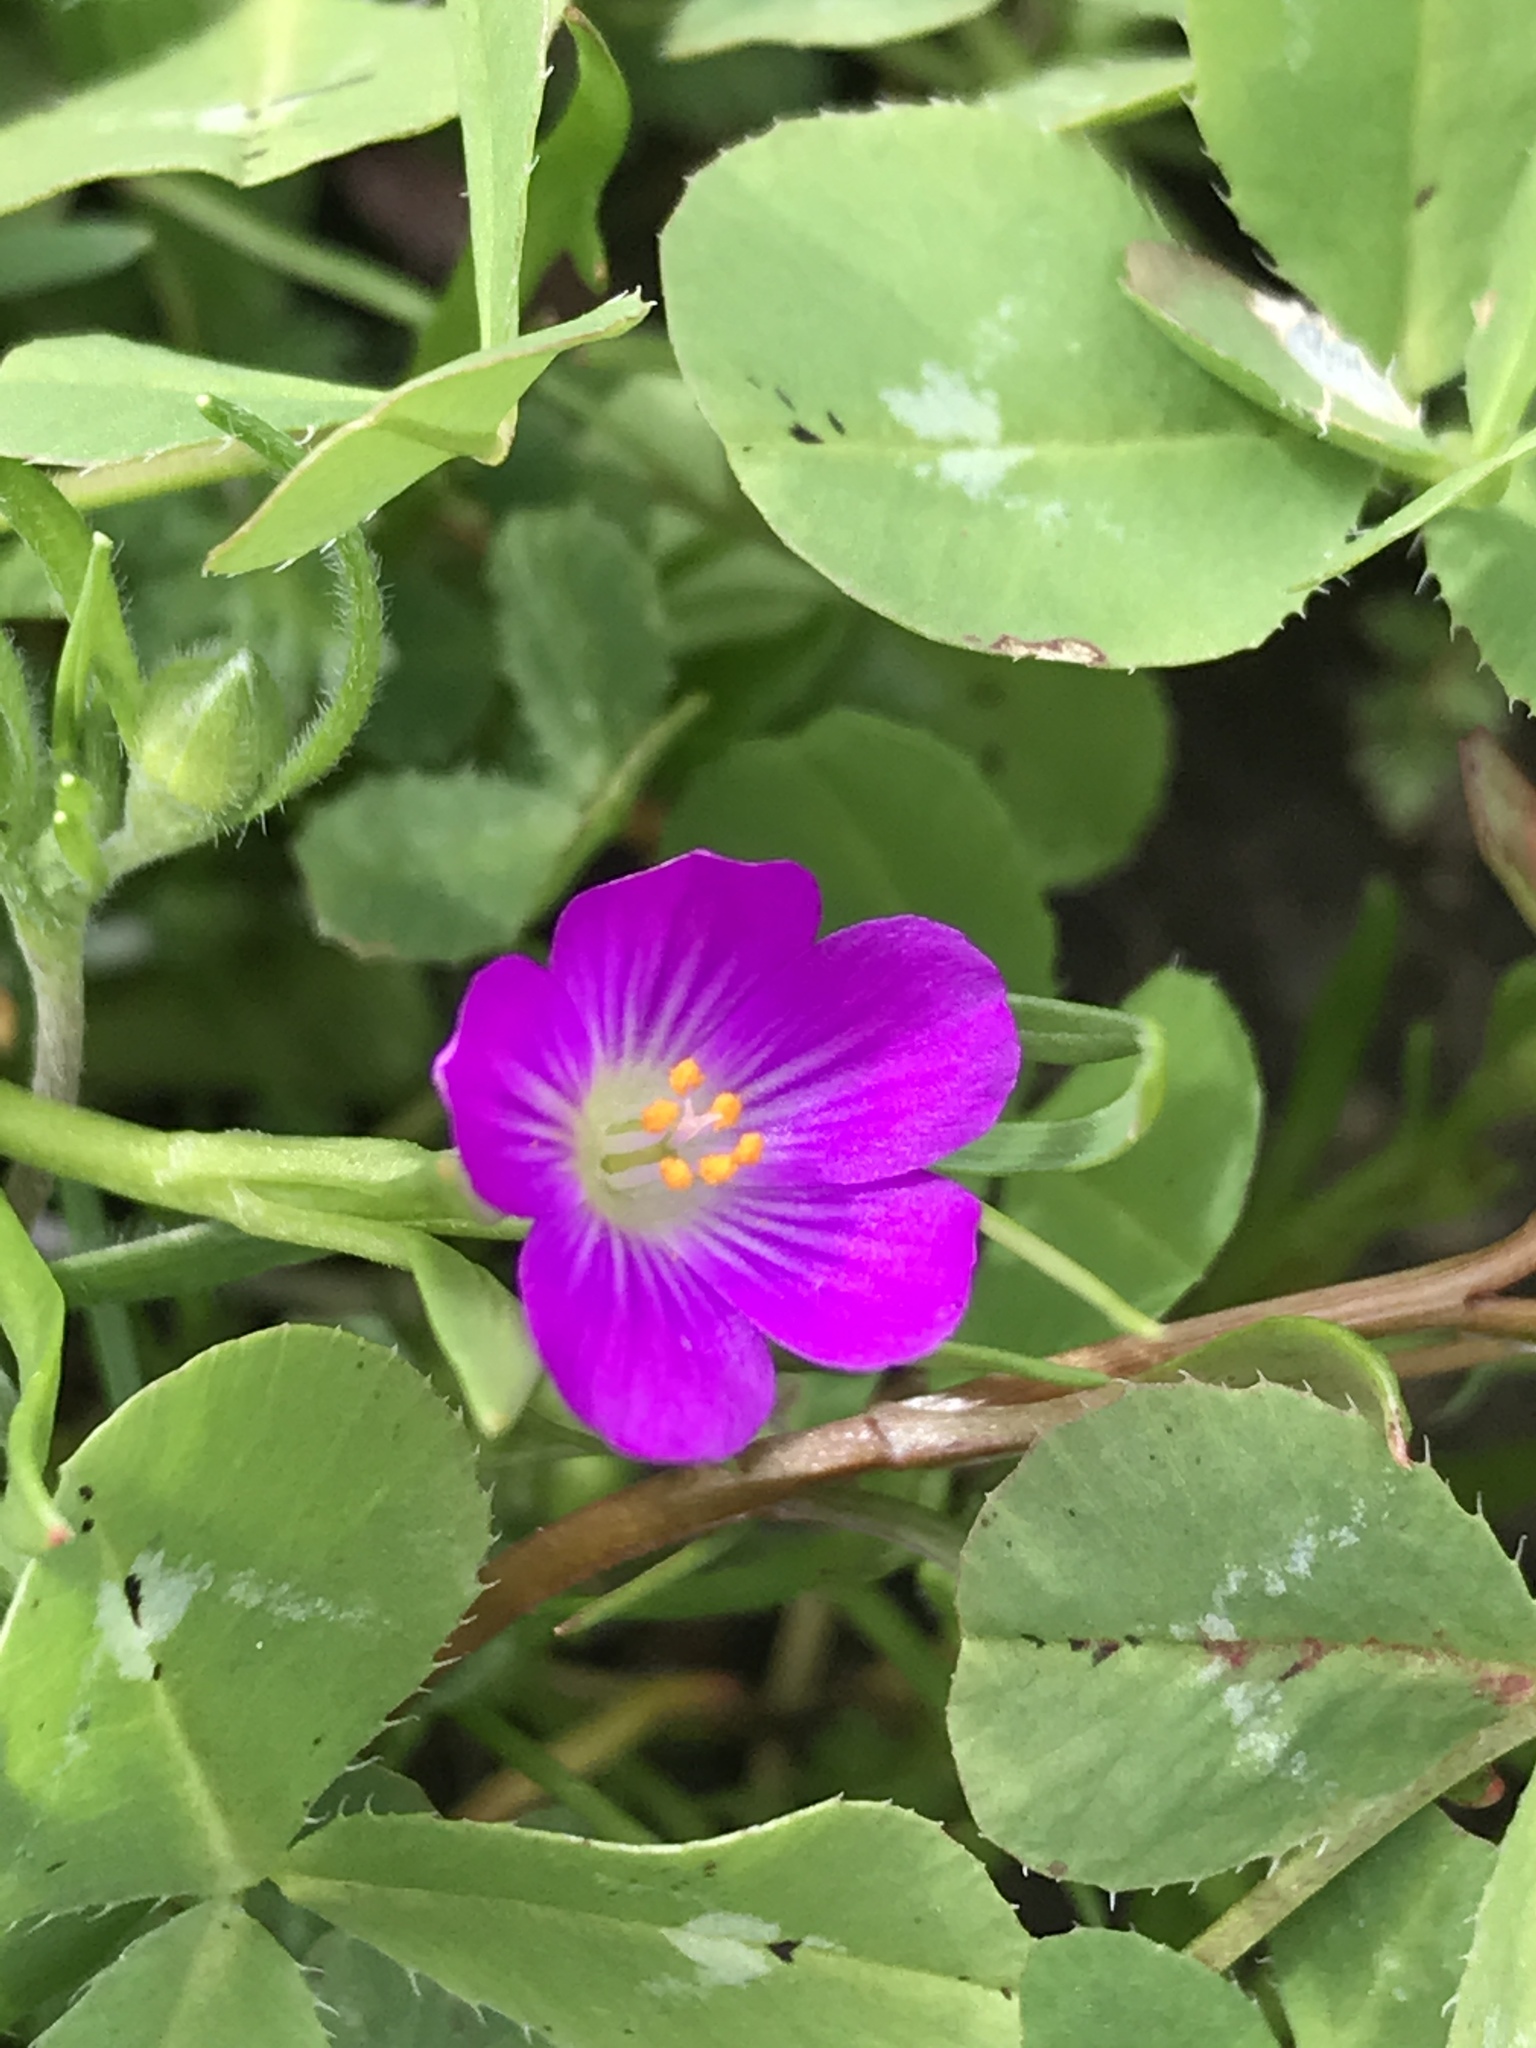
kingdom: Plantae
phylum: Tracheophyta
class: Magnoliopsida
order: Caryophyllales
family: Montiaceae
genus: Calandrinia
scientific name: Calandrinia menziesii
